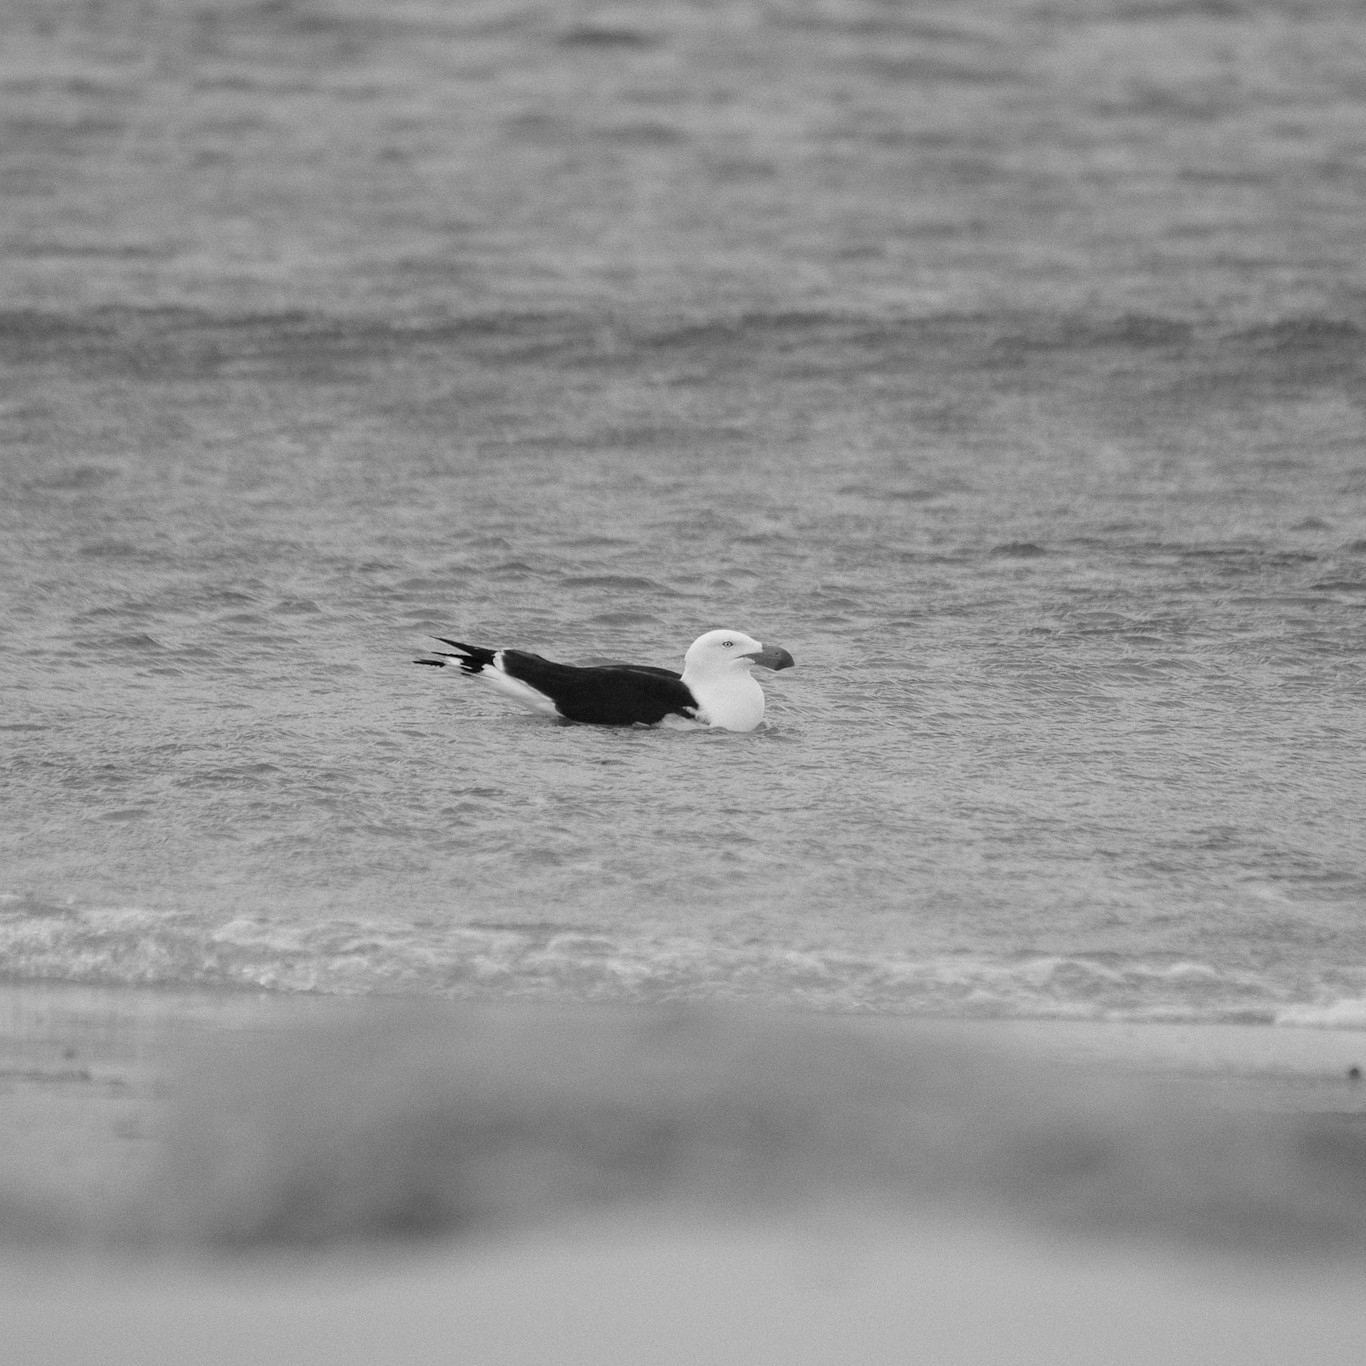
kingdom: Animalia
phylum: Chordata
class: Aves
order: Charadriiformes
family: Laridae
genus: Larus
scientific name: Larus pacificus
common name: Pacific gull
